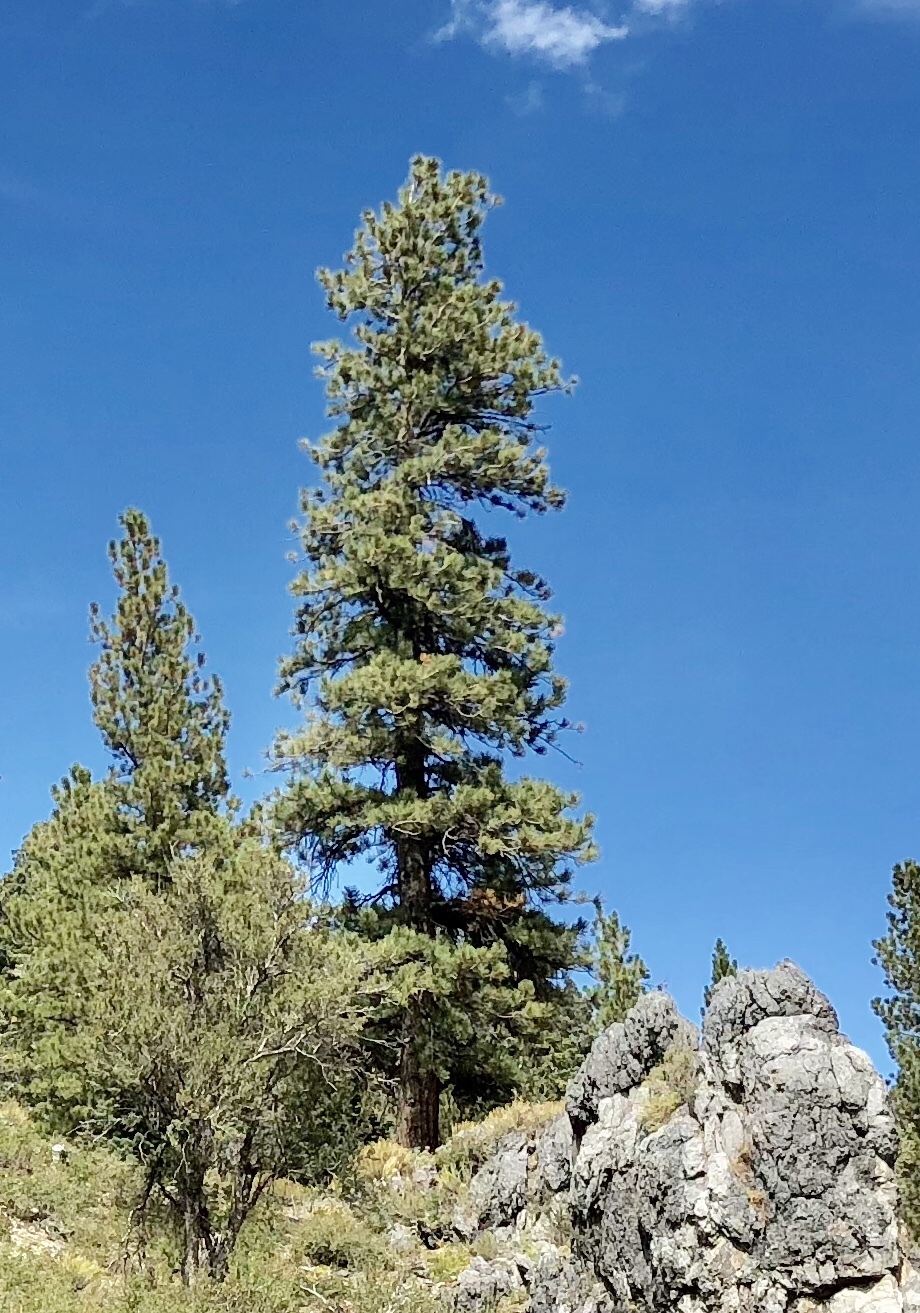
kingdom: Plantae
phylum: Tracheophyta
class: Pinopsida
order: Pinales
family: Pinaceae
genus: Pinus
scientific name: Pinus ponderosa
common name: Western yellow-pine
